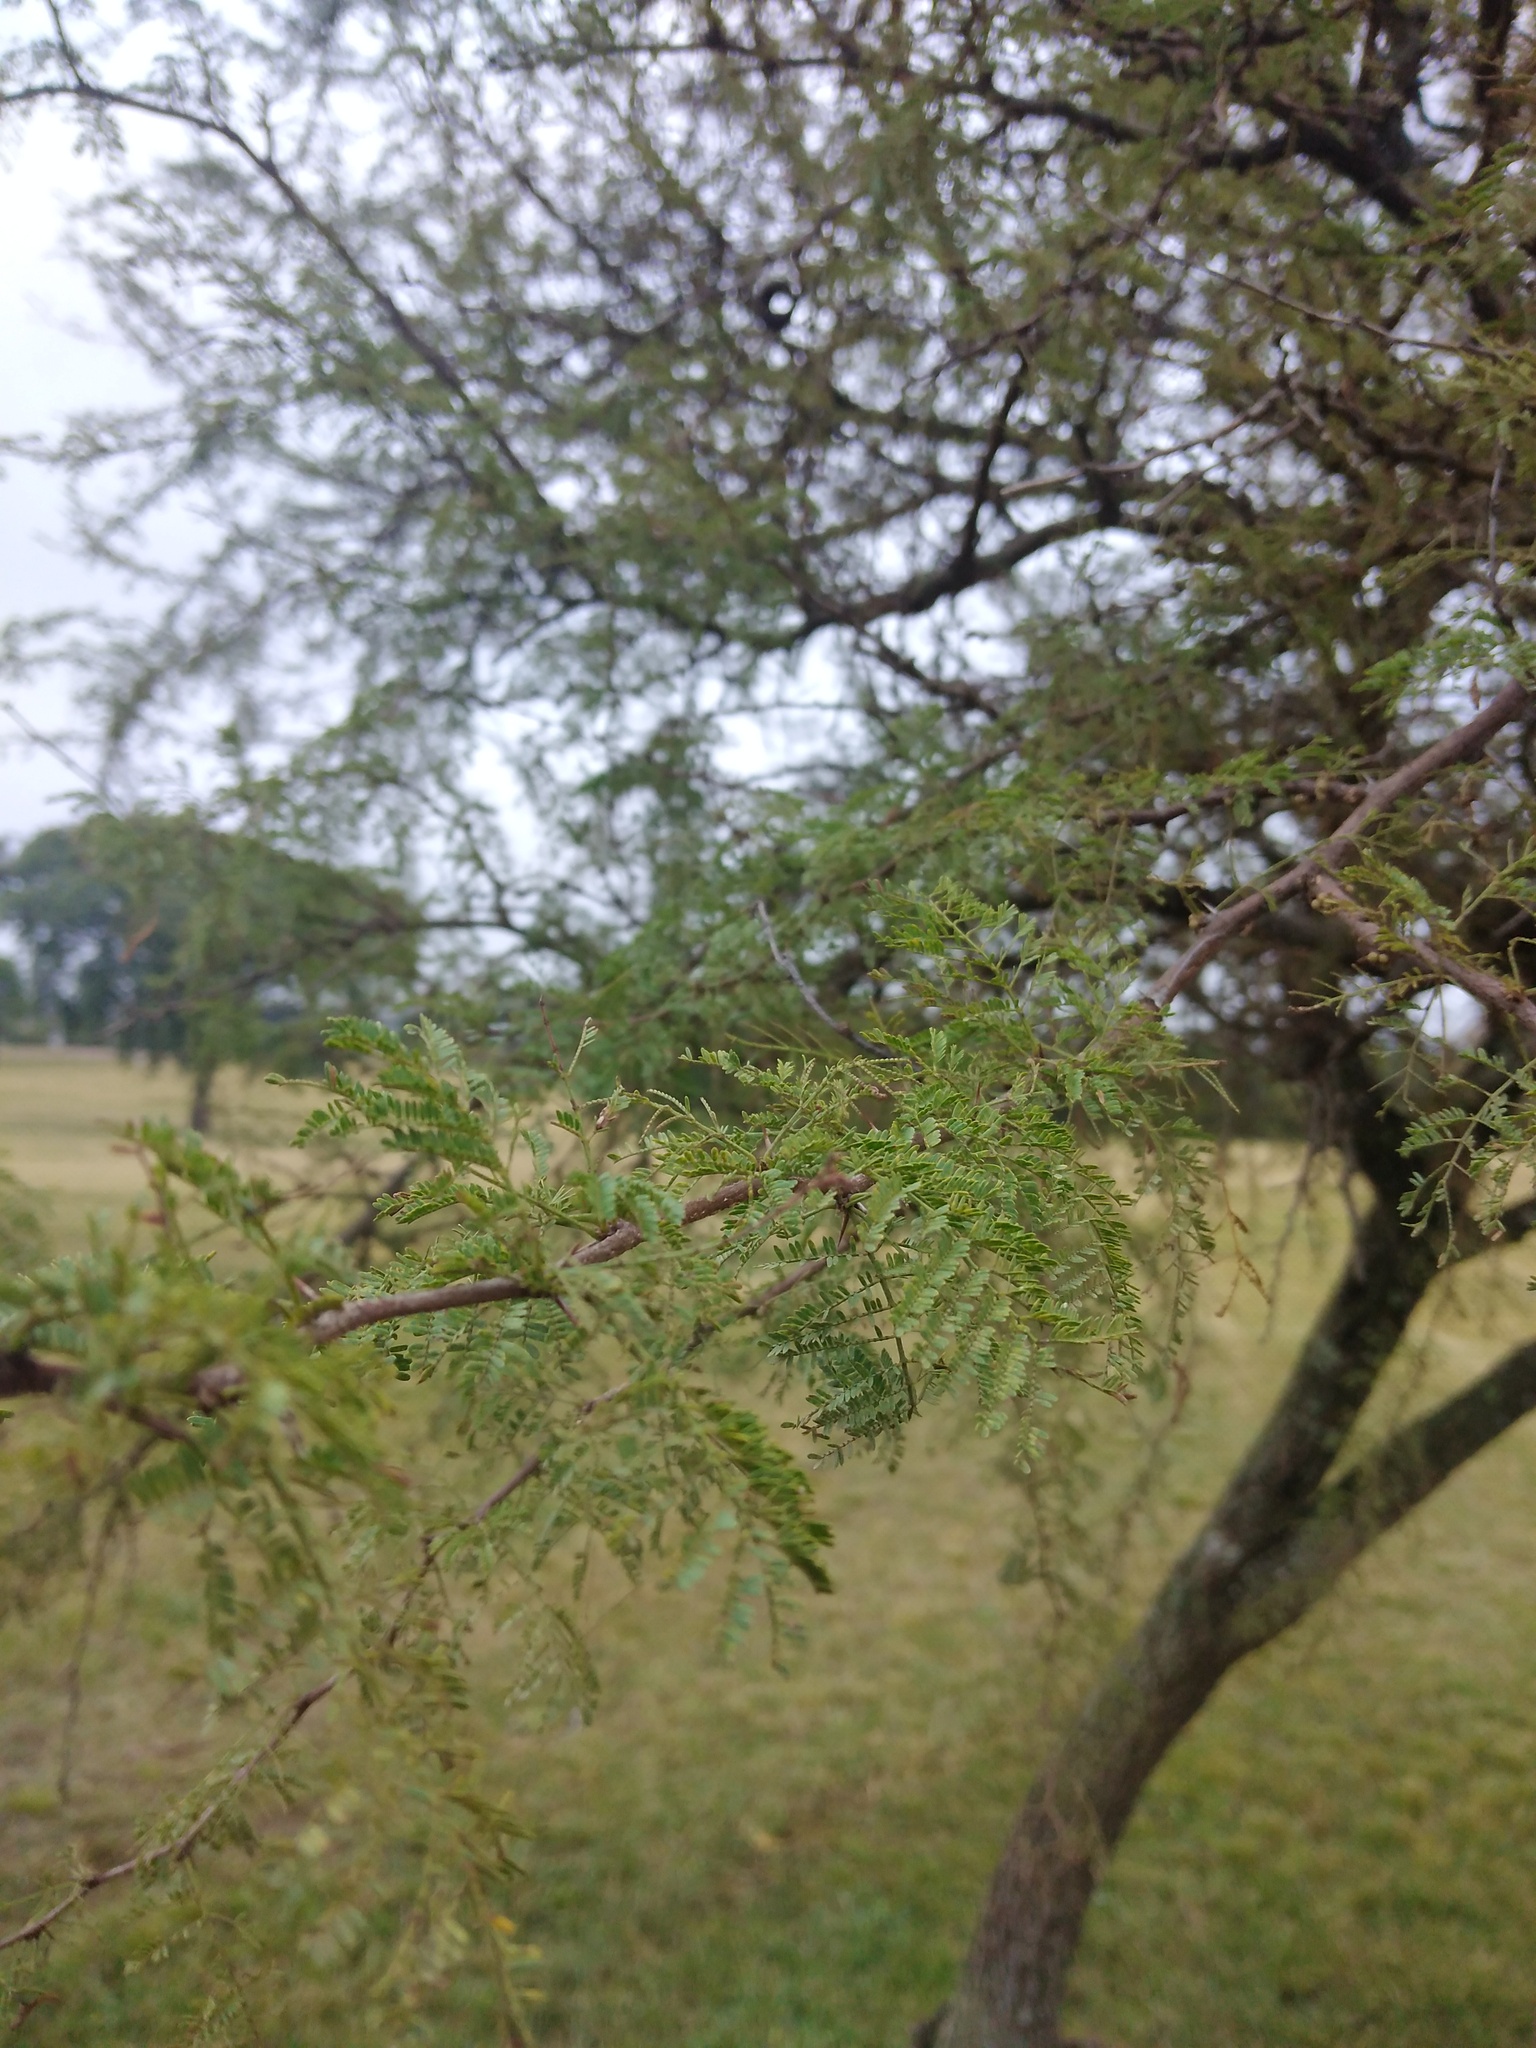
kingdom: Plantae
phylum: Tracheophyta
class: Magnoliopsida
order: Fabales
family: Fabaceae
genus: Vachellia
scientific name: Vachellia caven
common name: Roman cassie
